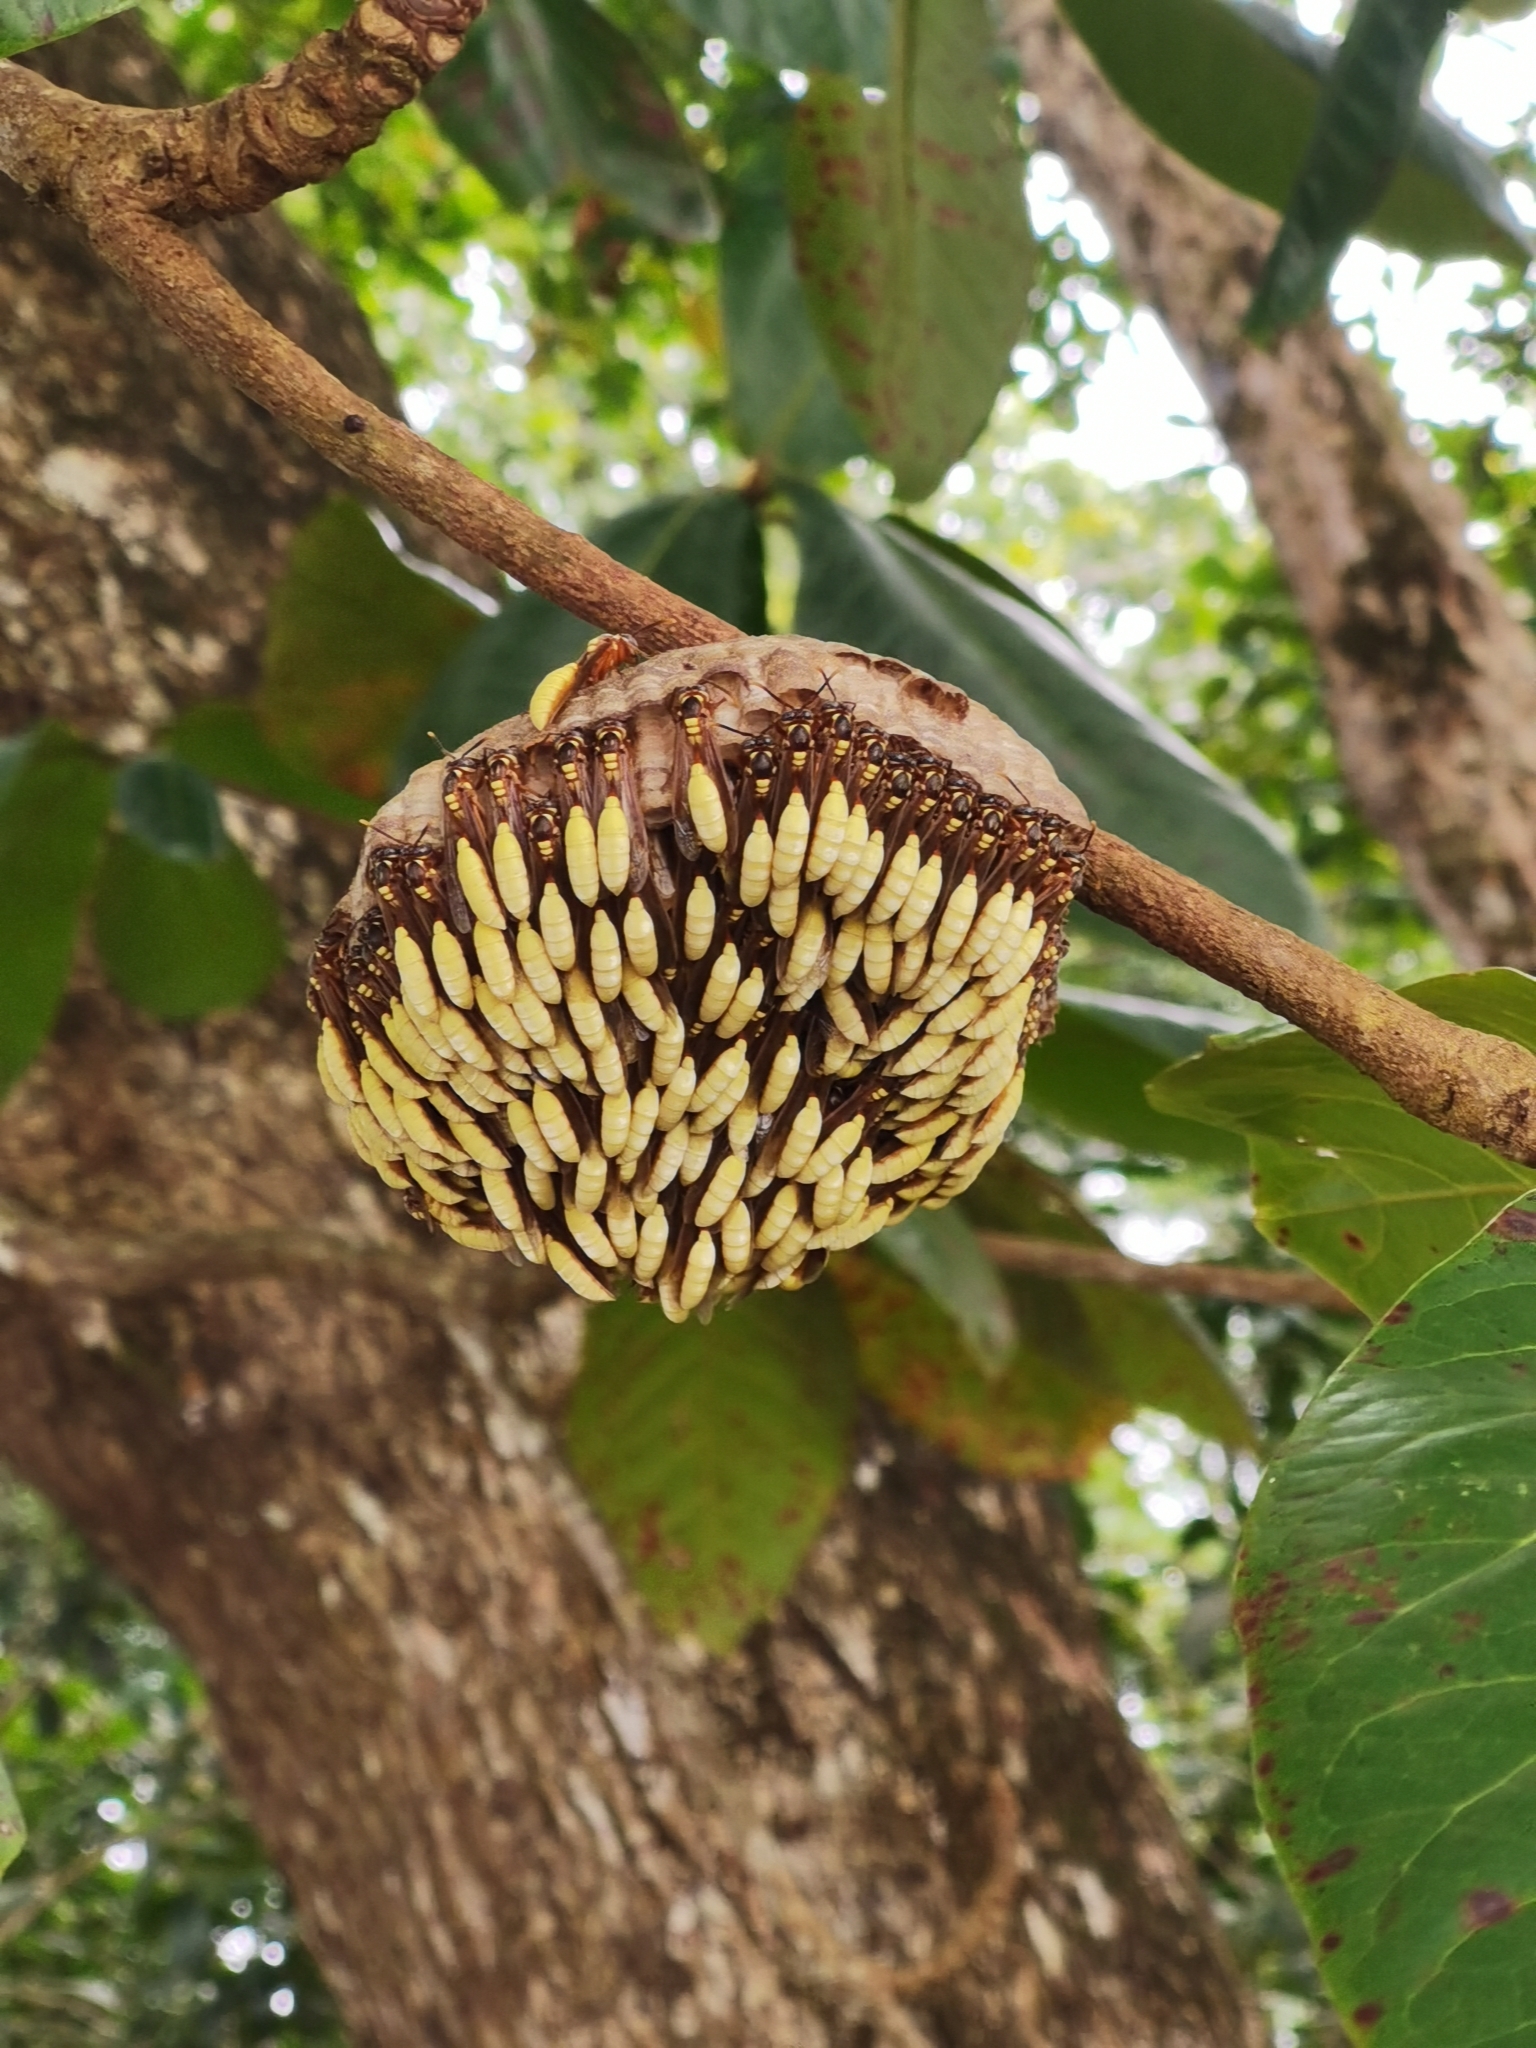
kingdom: Animalia
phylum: Arthropoda
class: Insecta
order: Hymenoptera
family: Vespidae
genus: Apoica
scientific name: Apoica pallens
